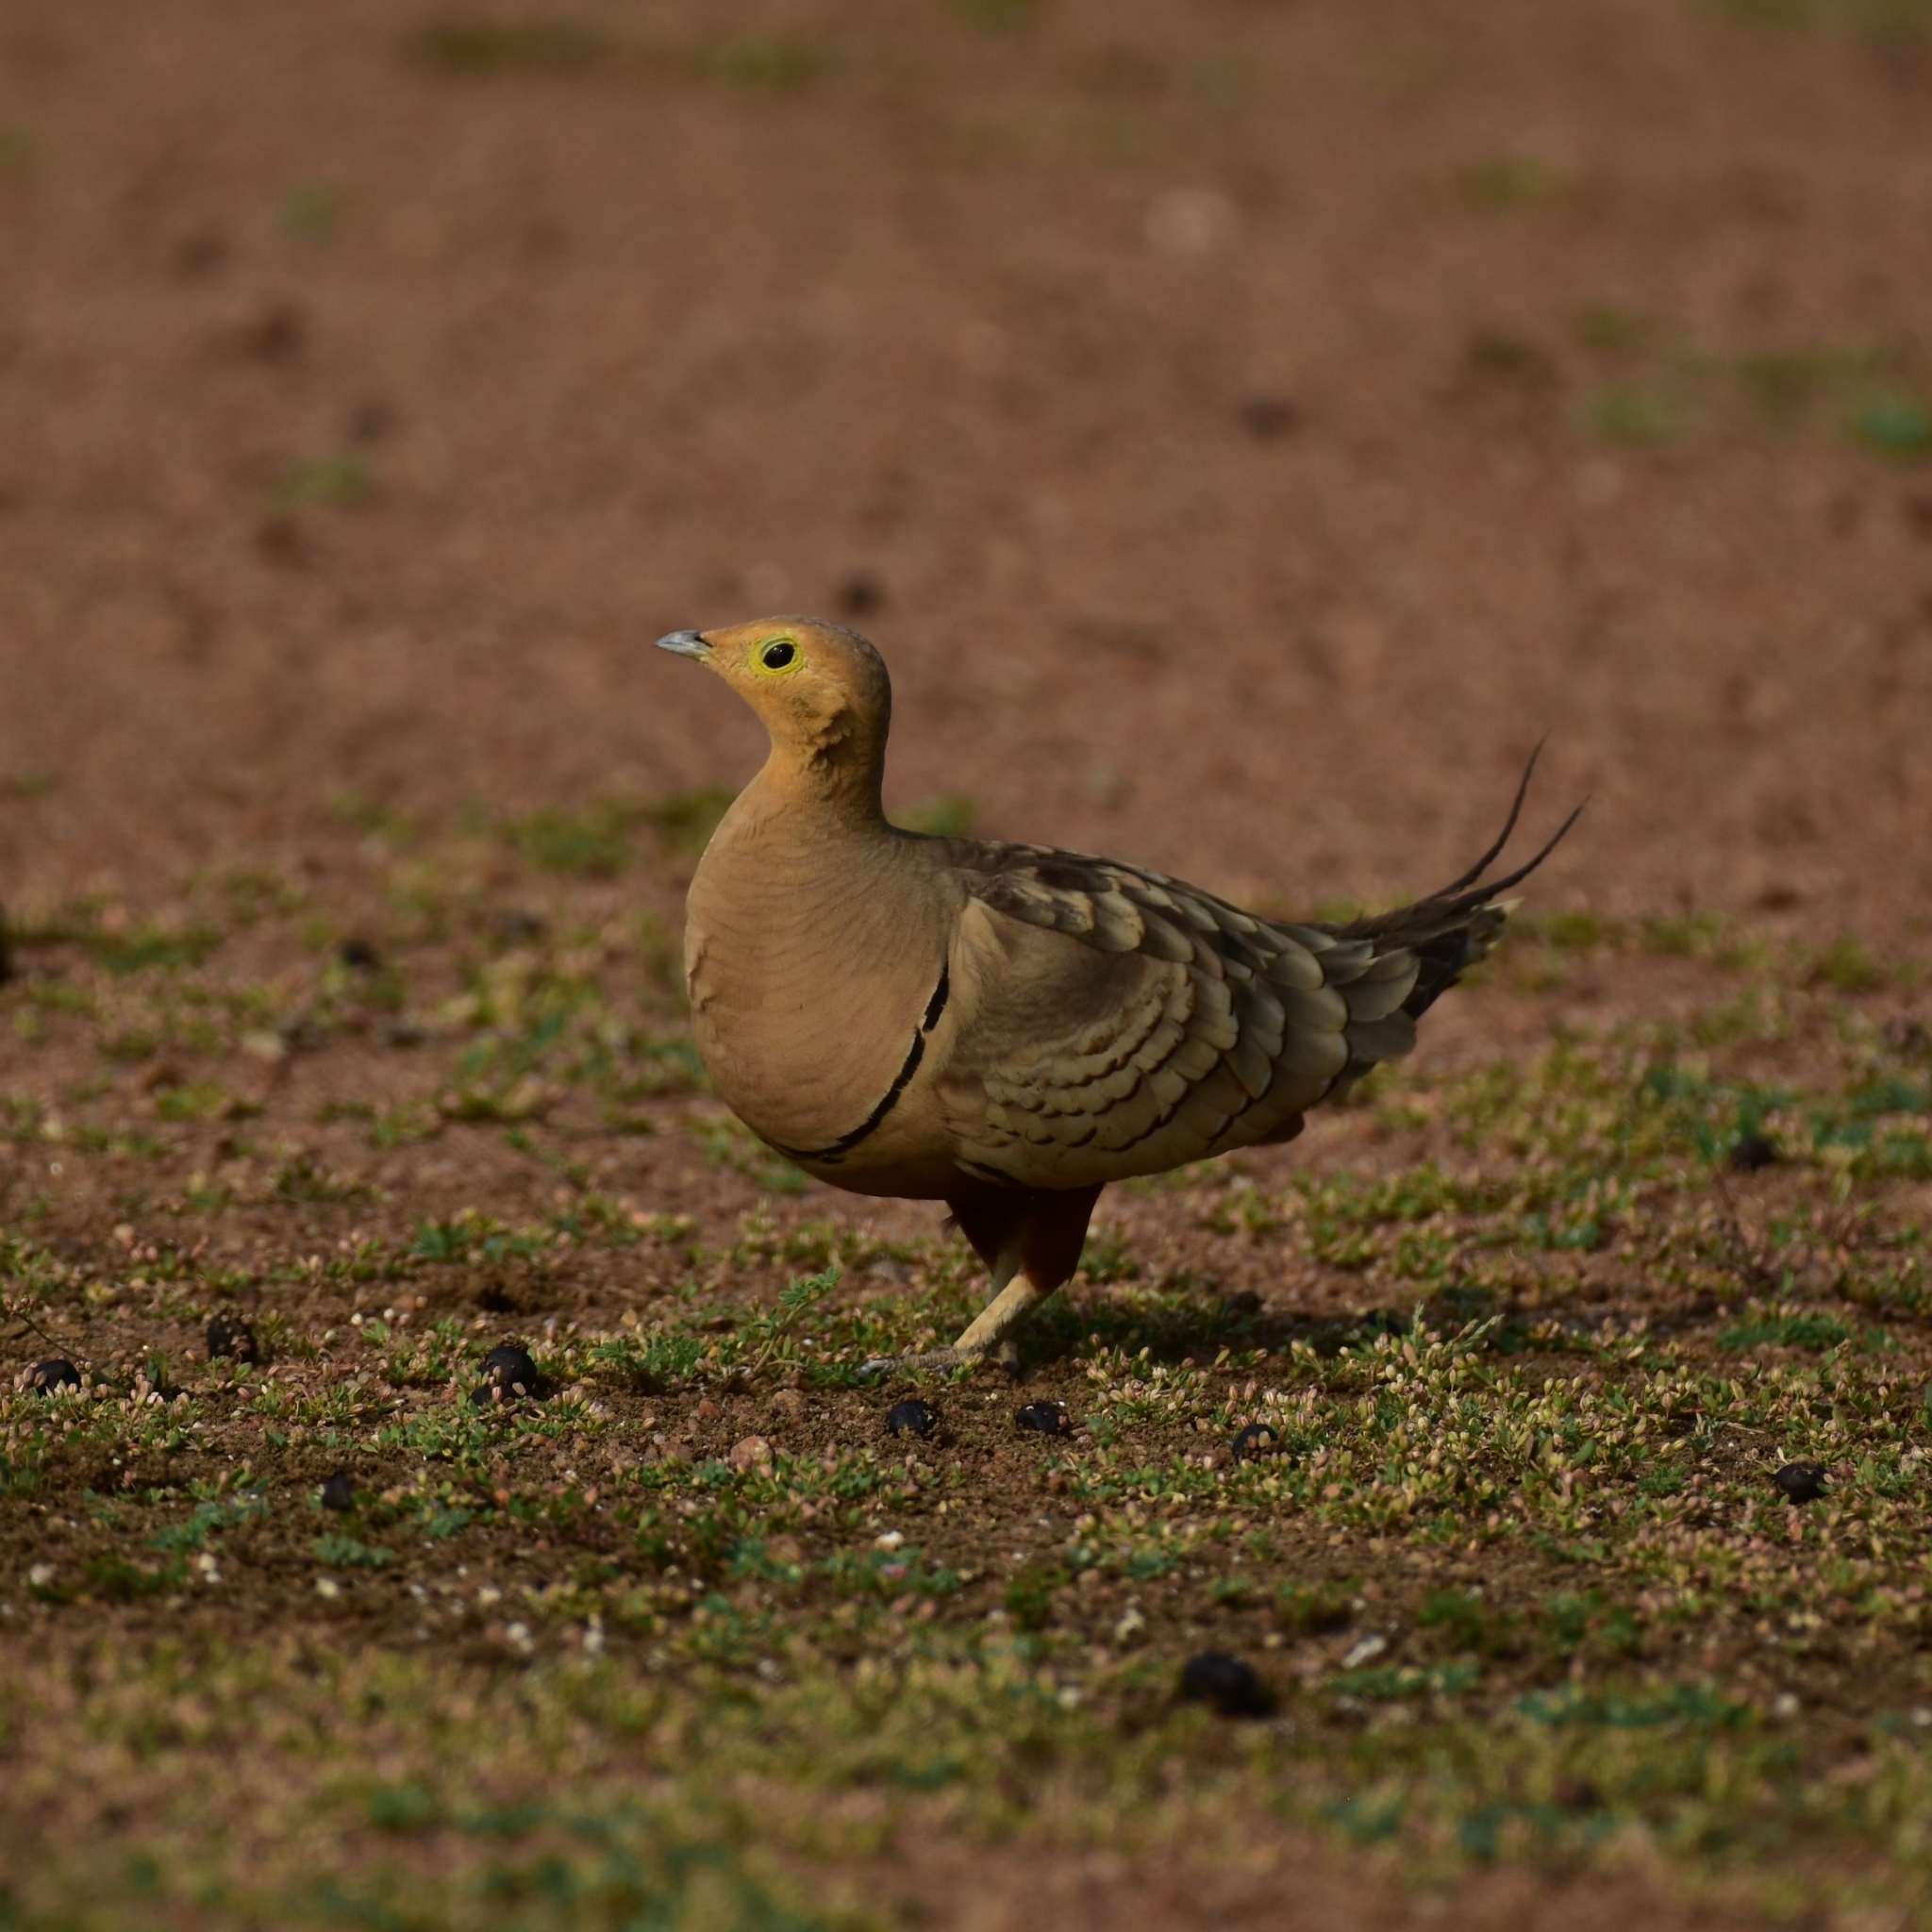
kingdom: Animalia
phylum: Chordata
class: Aves
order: Pteroclidiformes
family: Pteroclididae
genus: Pterocles
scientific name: Pterocles exustus
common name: Chestnut-bellied sandgrouse
